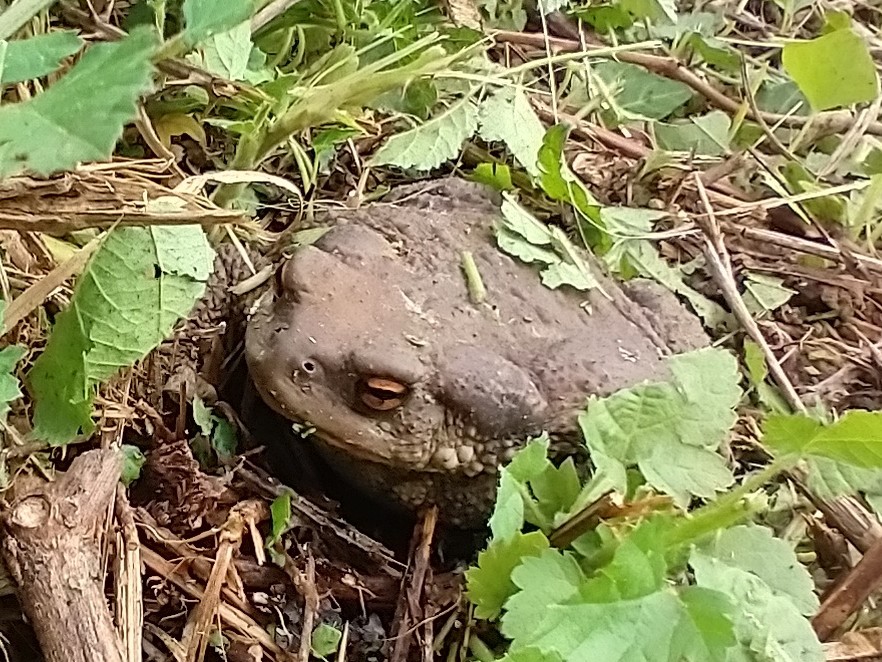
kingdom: Animalia
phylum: Chordata
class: Amphibia
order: Anura
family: Bufonidae
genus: Bufo
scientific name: Bufo spinosus
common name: Western common toad
